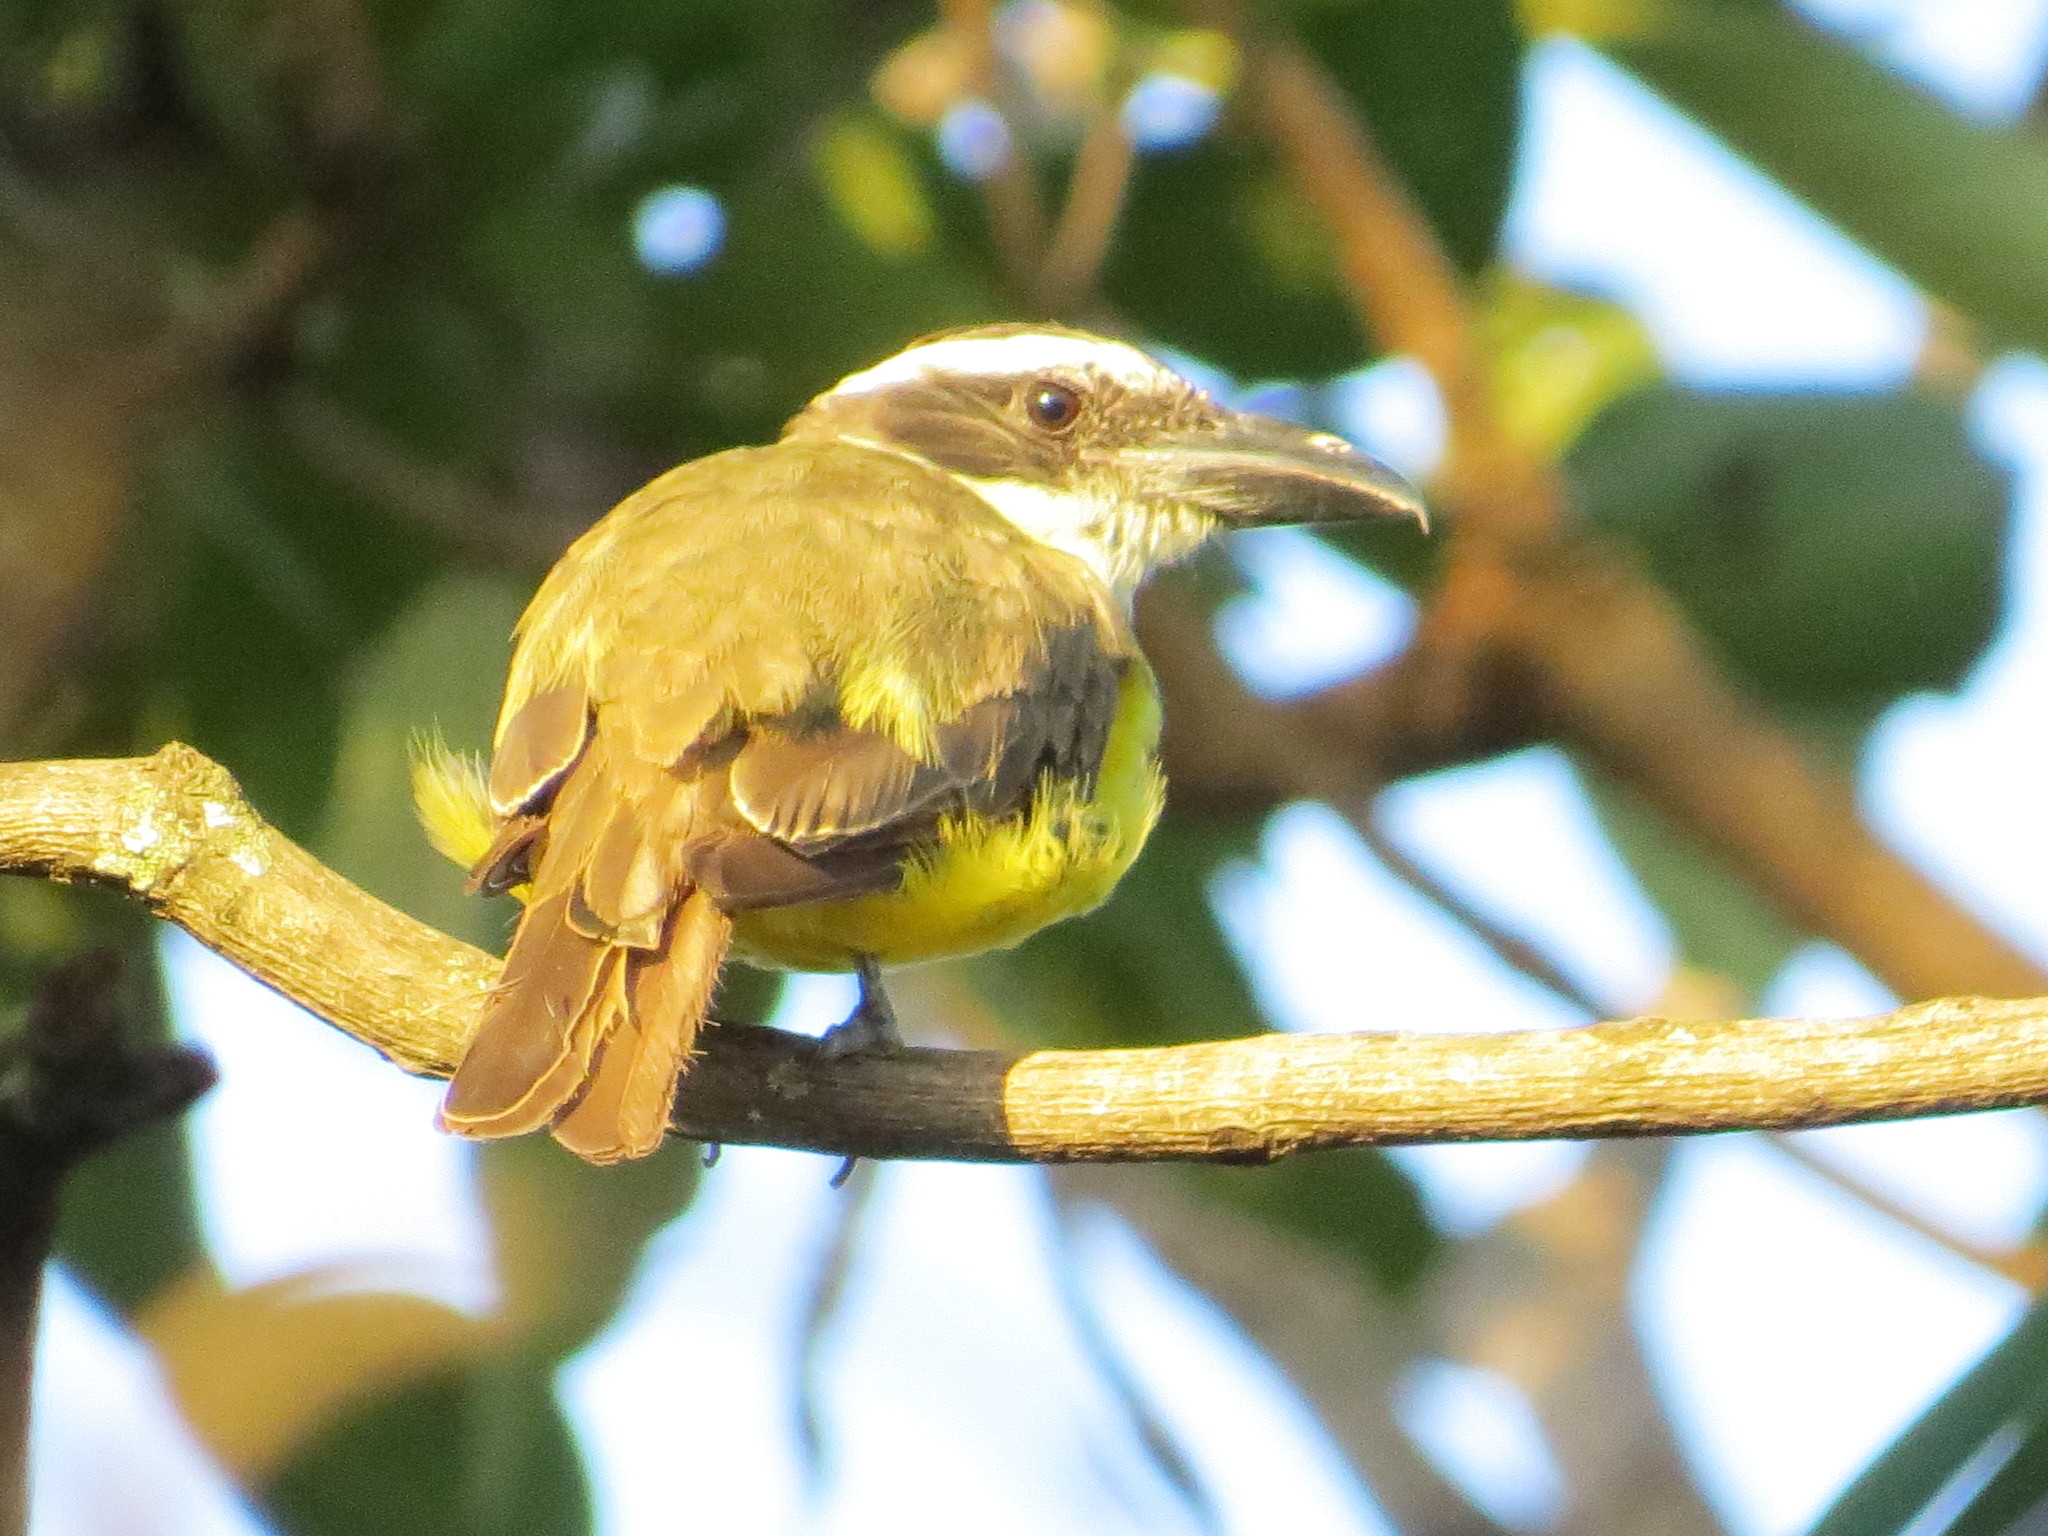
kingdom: Animalia
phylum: Chordata
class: Aves
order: Passeriformes
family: Tyrannidae
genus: Megarynchus
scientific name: Megarynchus pitangua
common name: Boat-billed flycatcher
